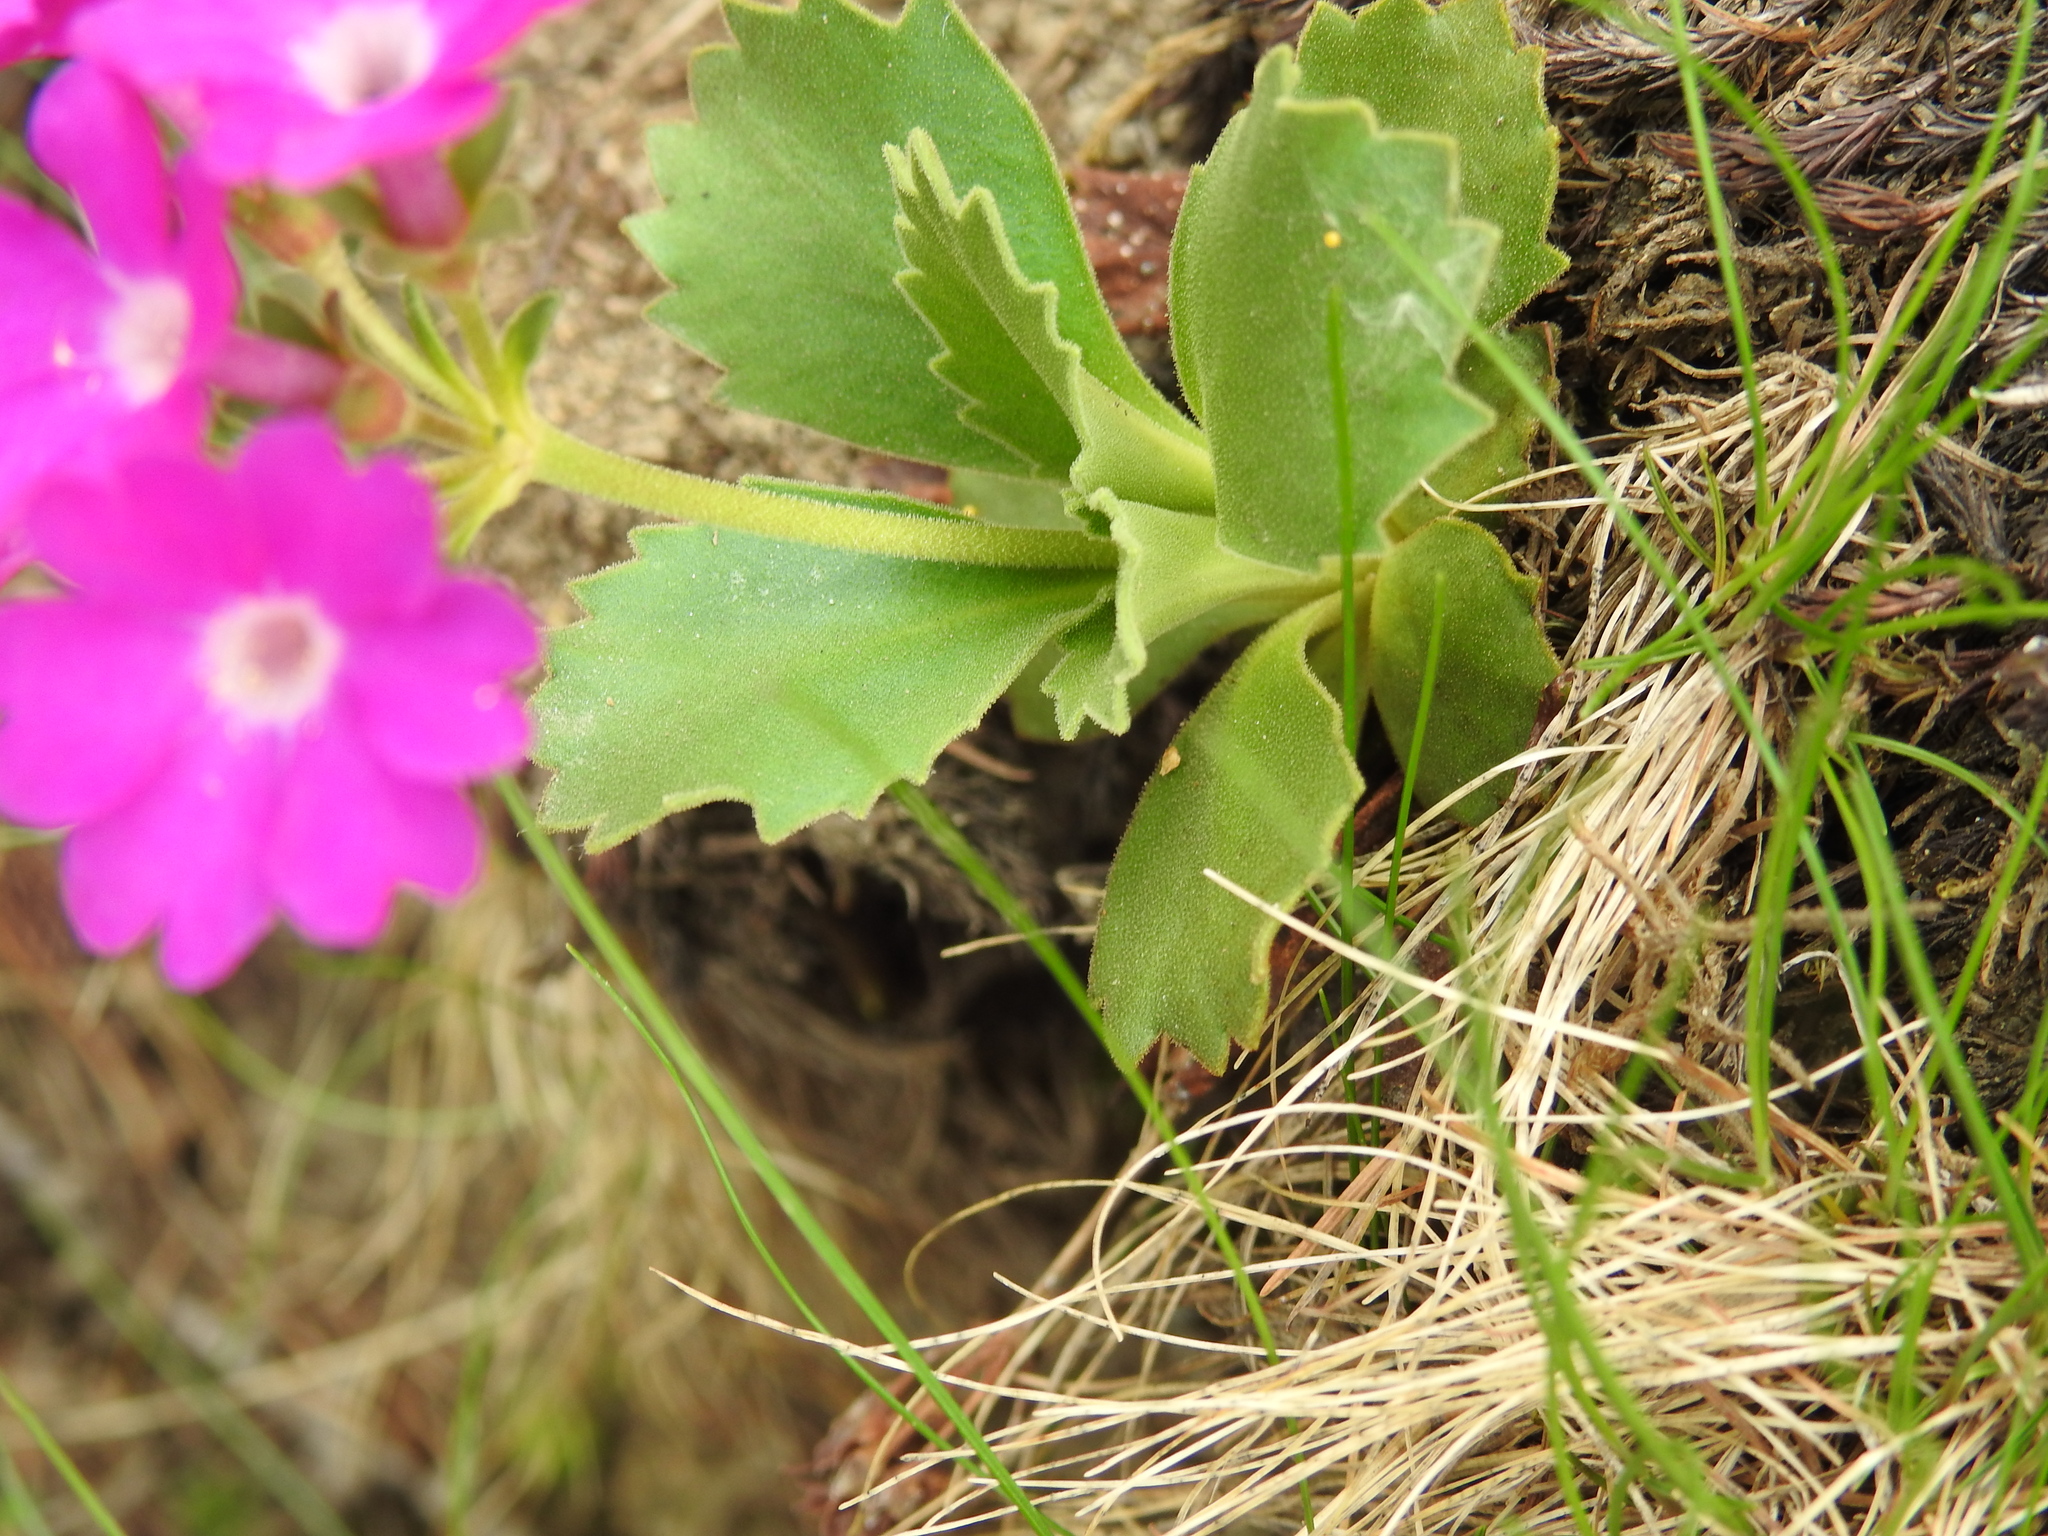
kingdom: Plantae
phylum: Tracheophyta
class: Magnoliopsida
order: Ericales
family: Primulaceae
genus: Primula
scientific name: Primula hirsuta
